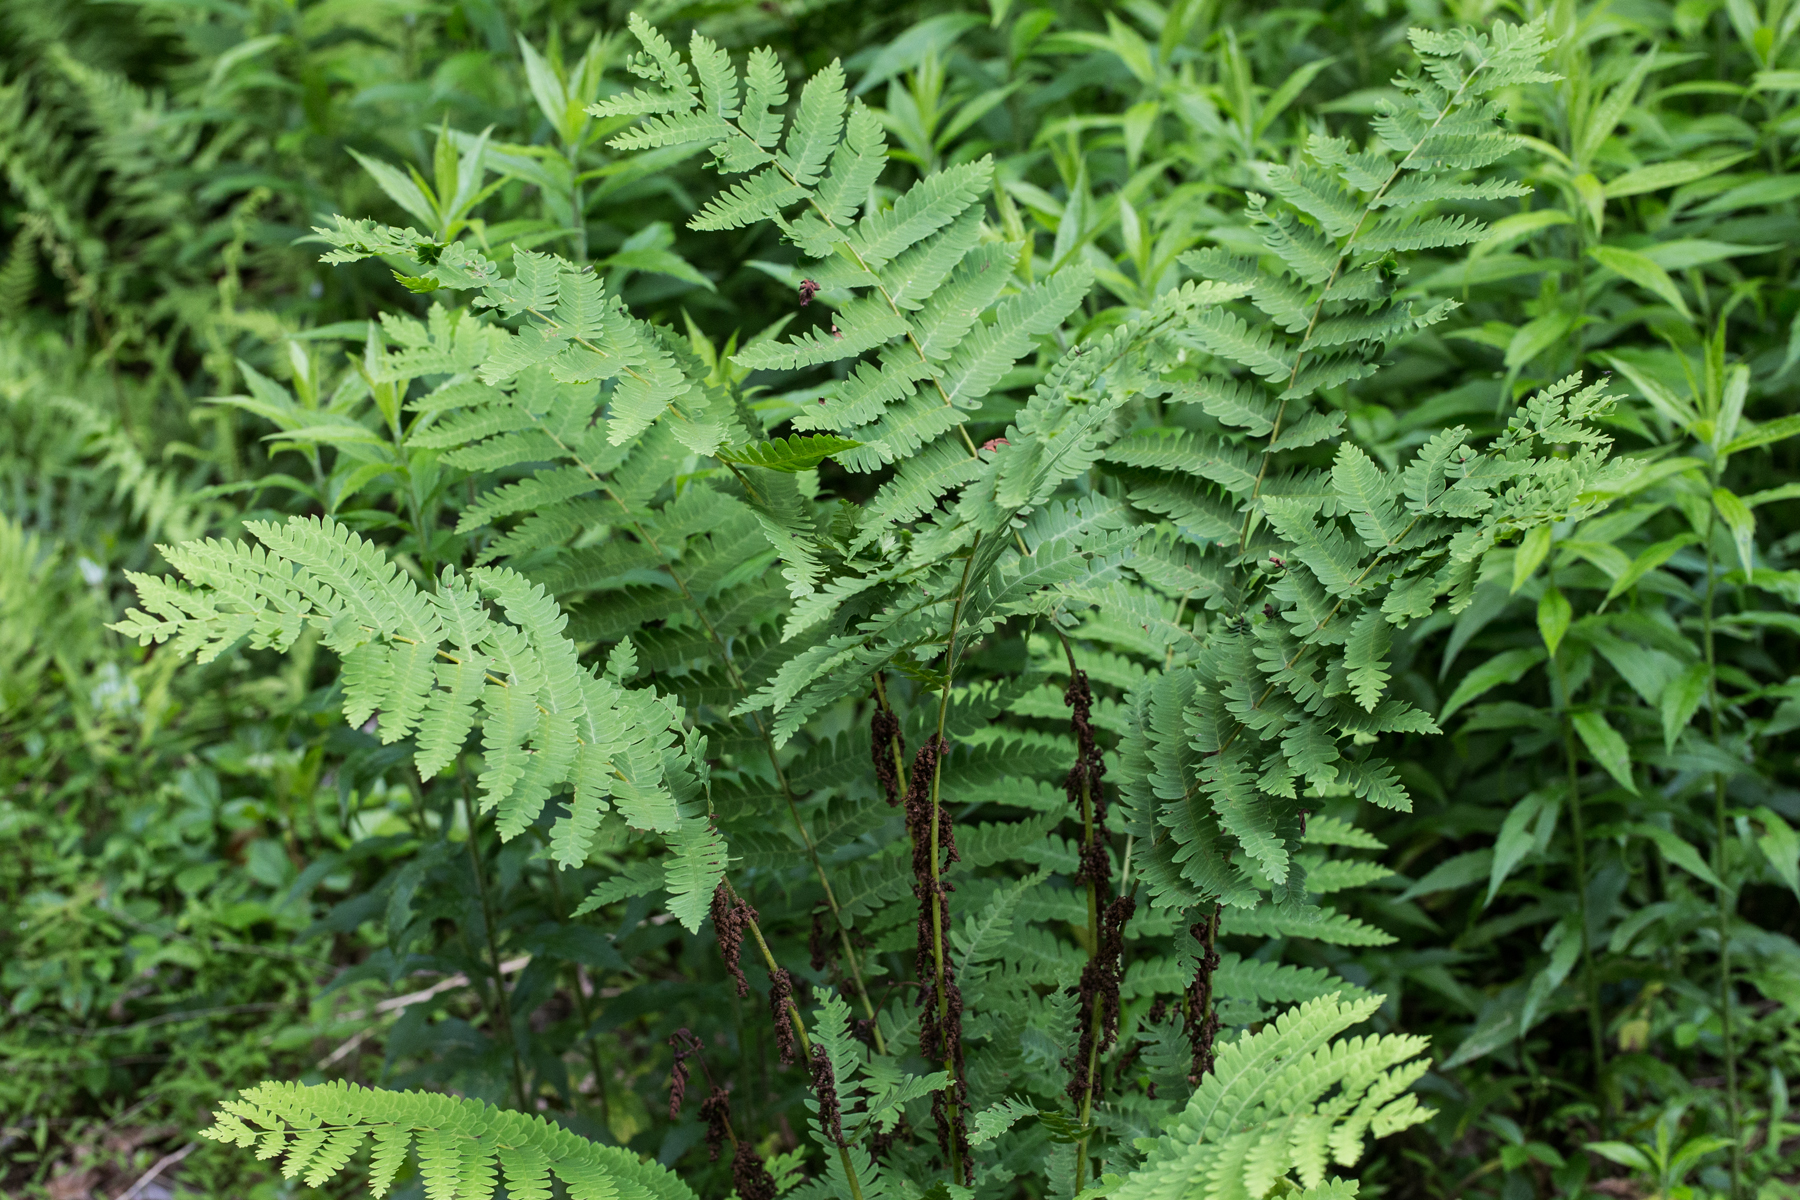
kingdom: Plantae
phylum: Tracheophyta
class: Polypodiopsida
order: Osmundales
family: Osmundaceae
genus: Claytosmunda
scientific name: Claytosmunda claytoniana
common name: Clayton's fern
